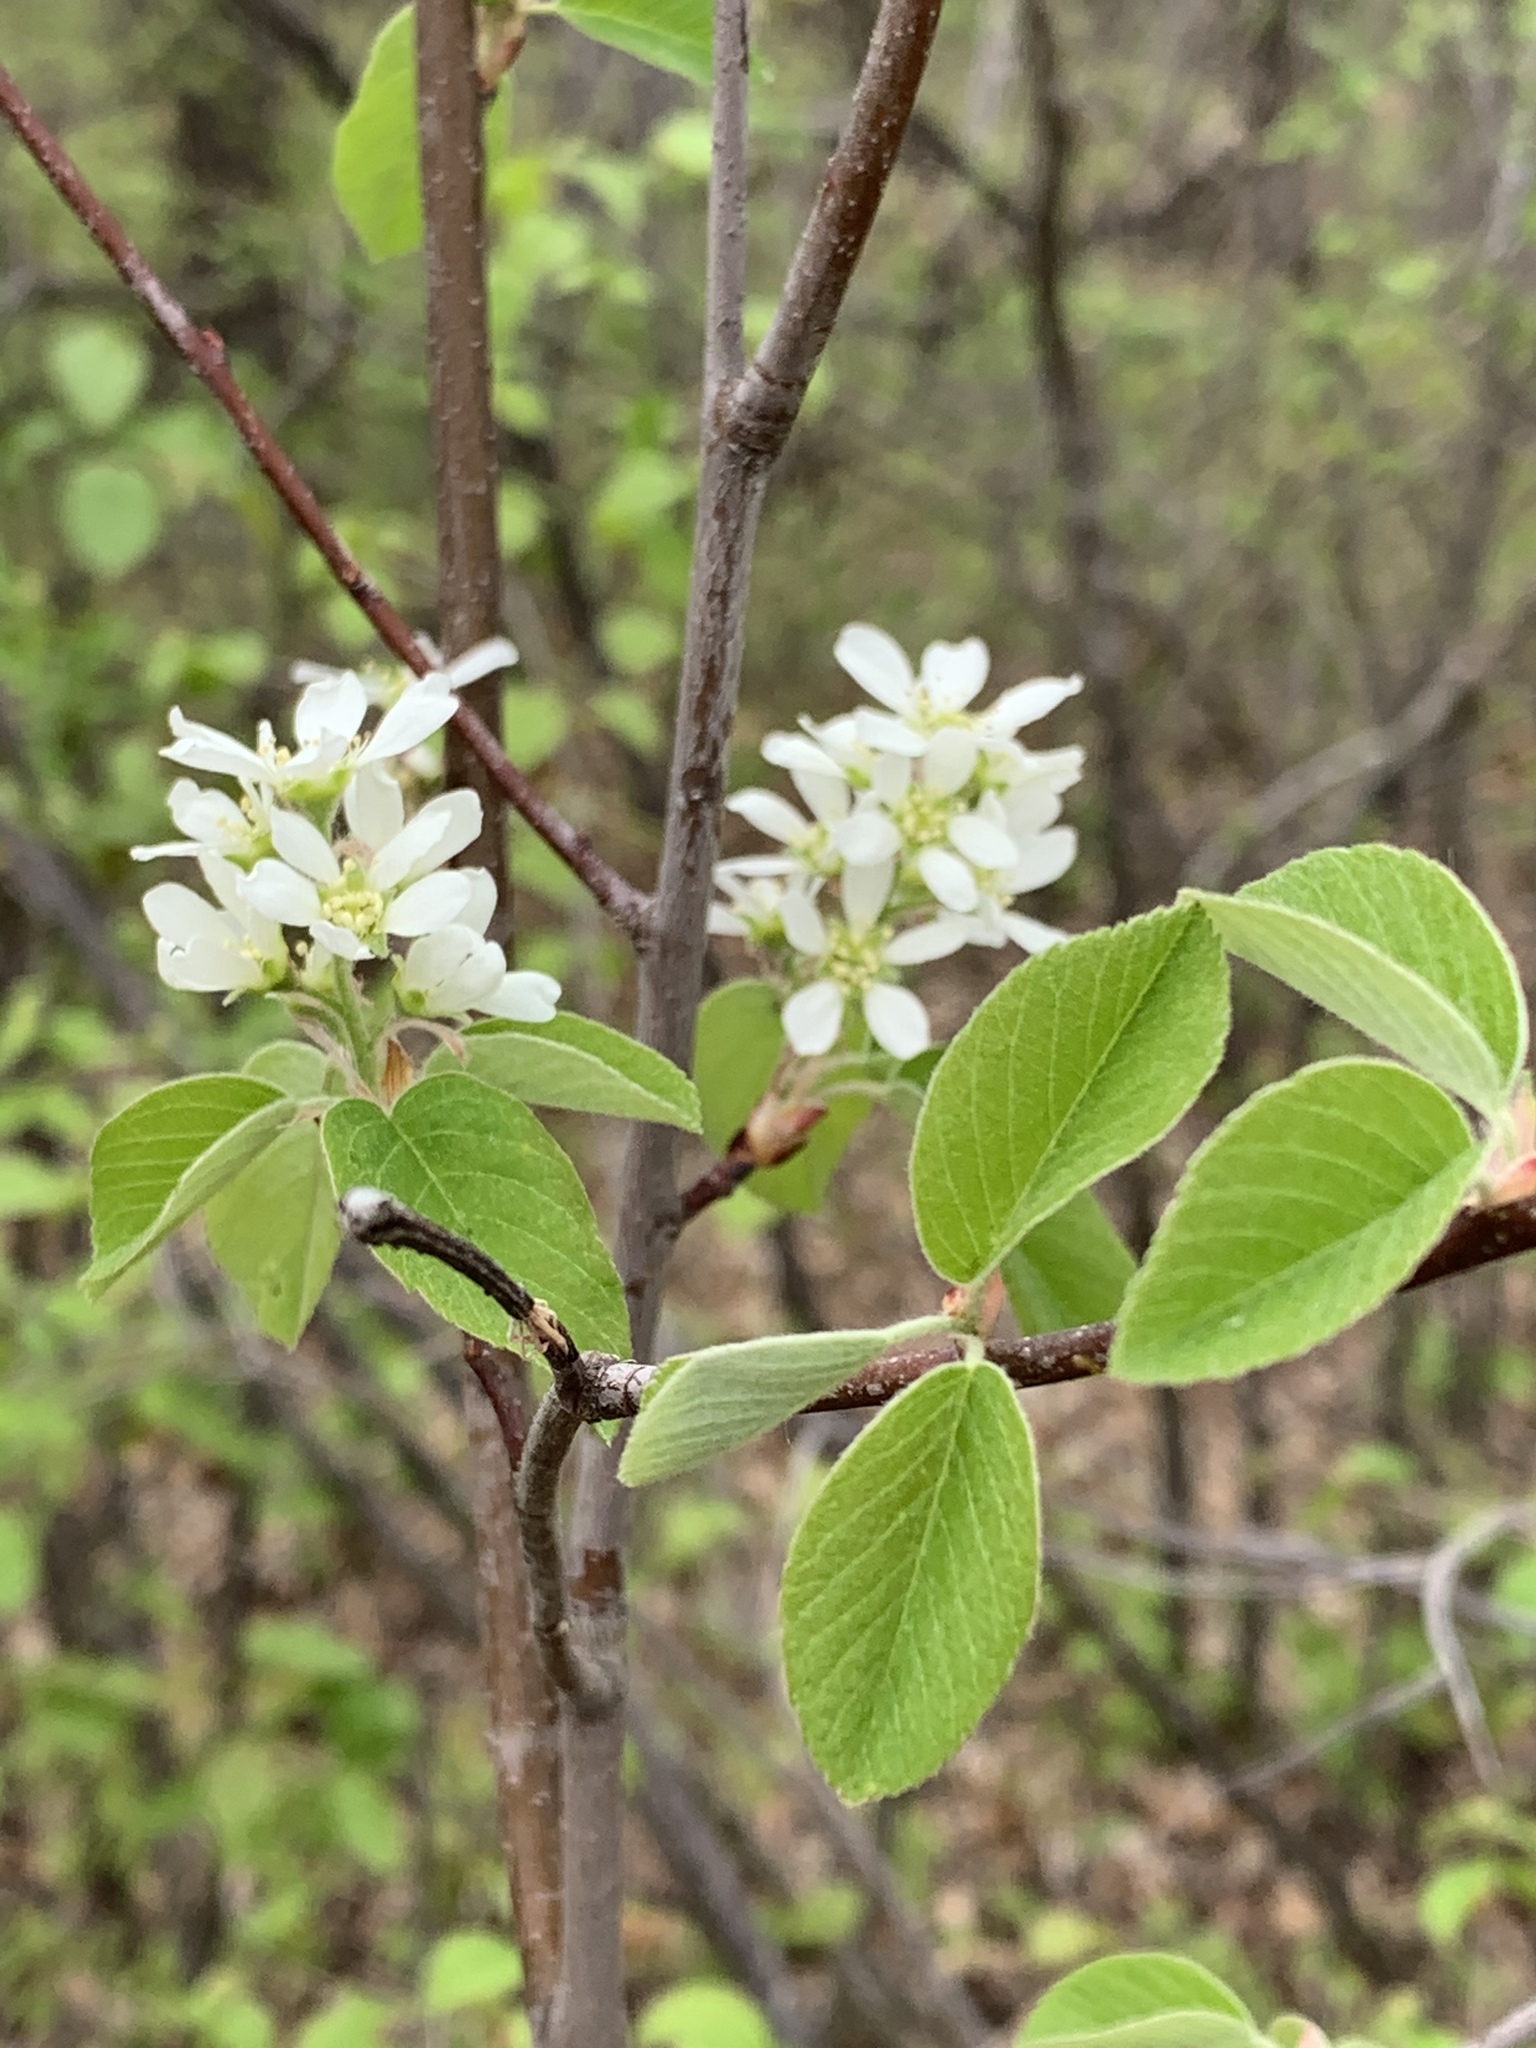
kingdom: Plantae
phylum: Tracheophyta
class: Magnoliopsida
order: Rosales
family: Rosaceae
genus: Amelanchier
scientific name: Amelanchier alnifolia
